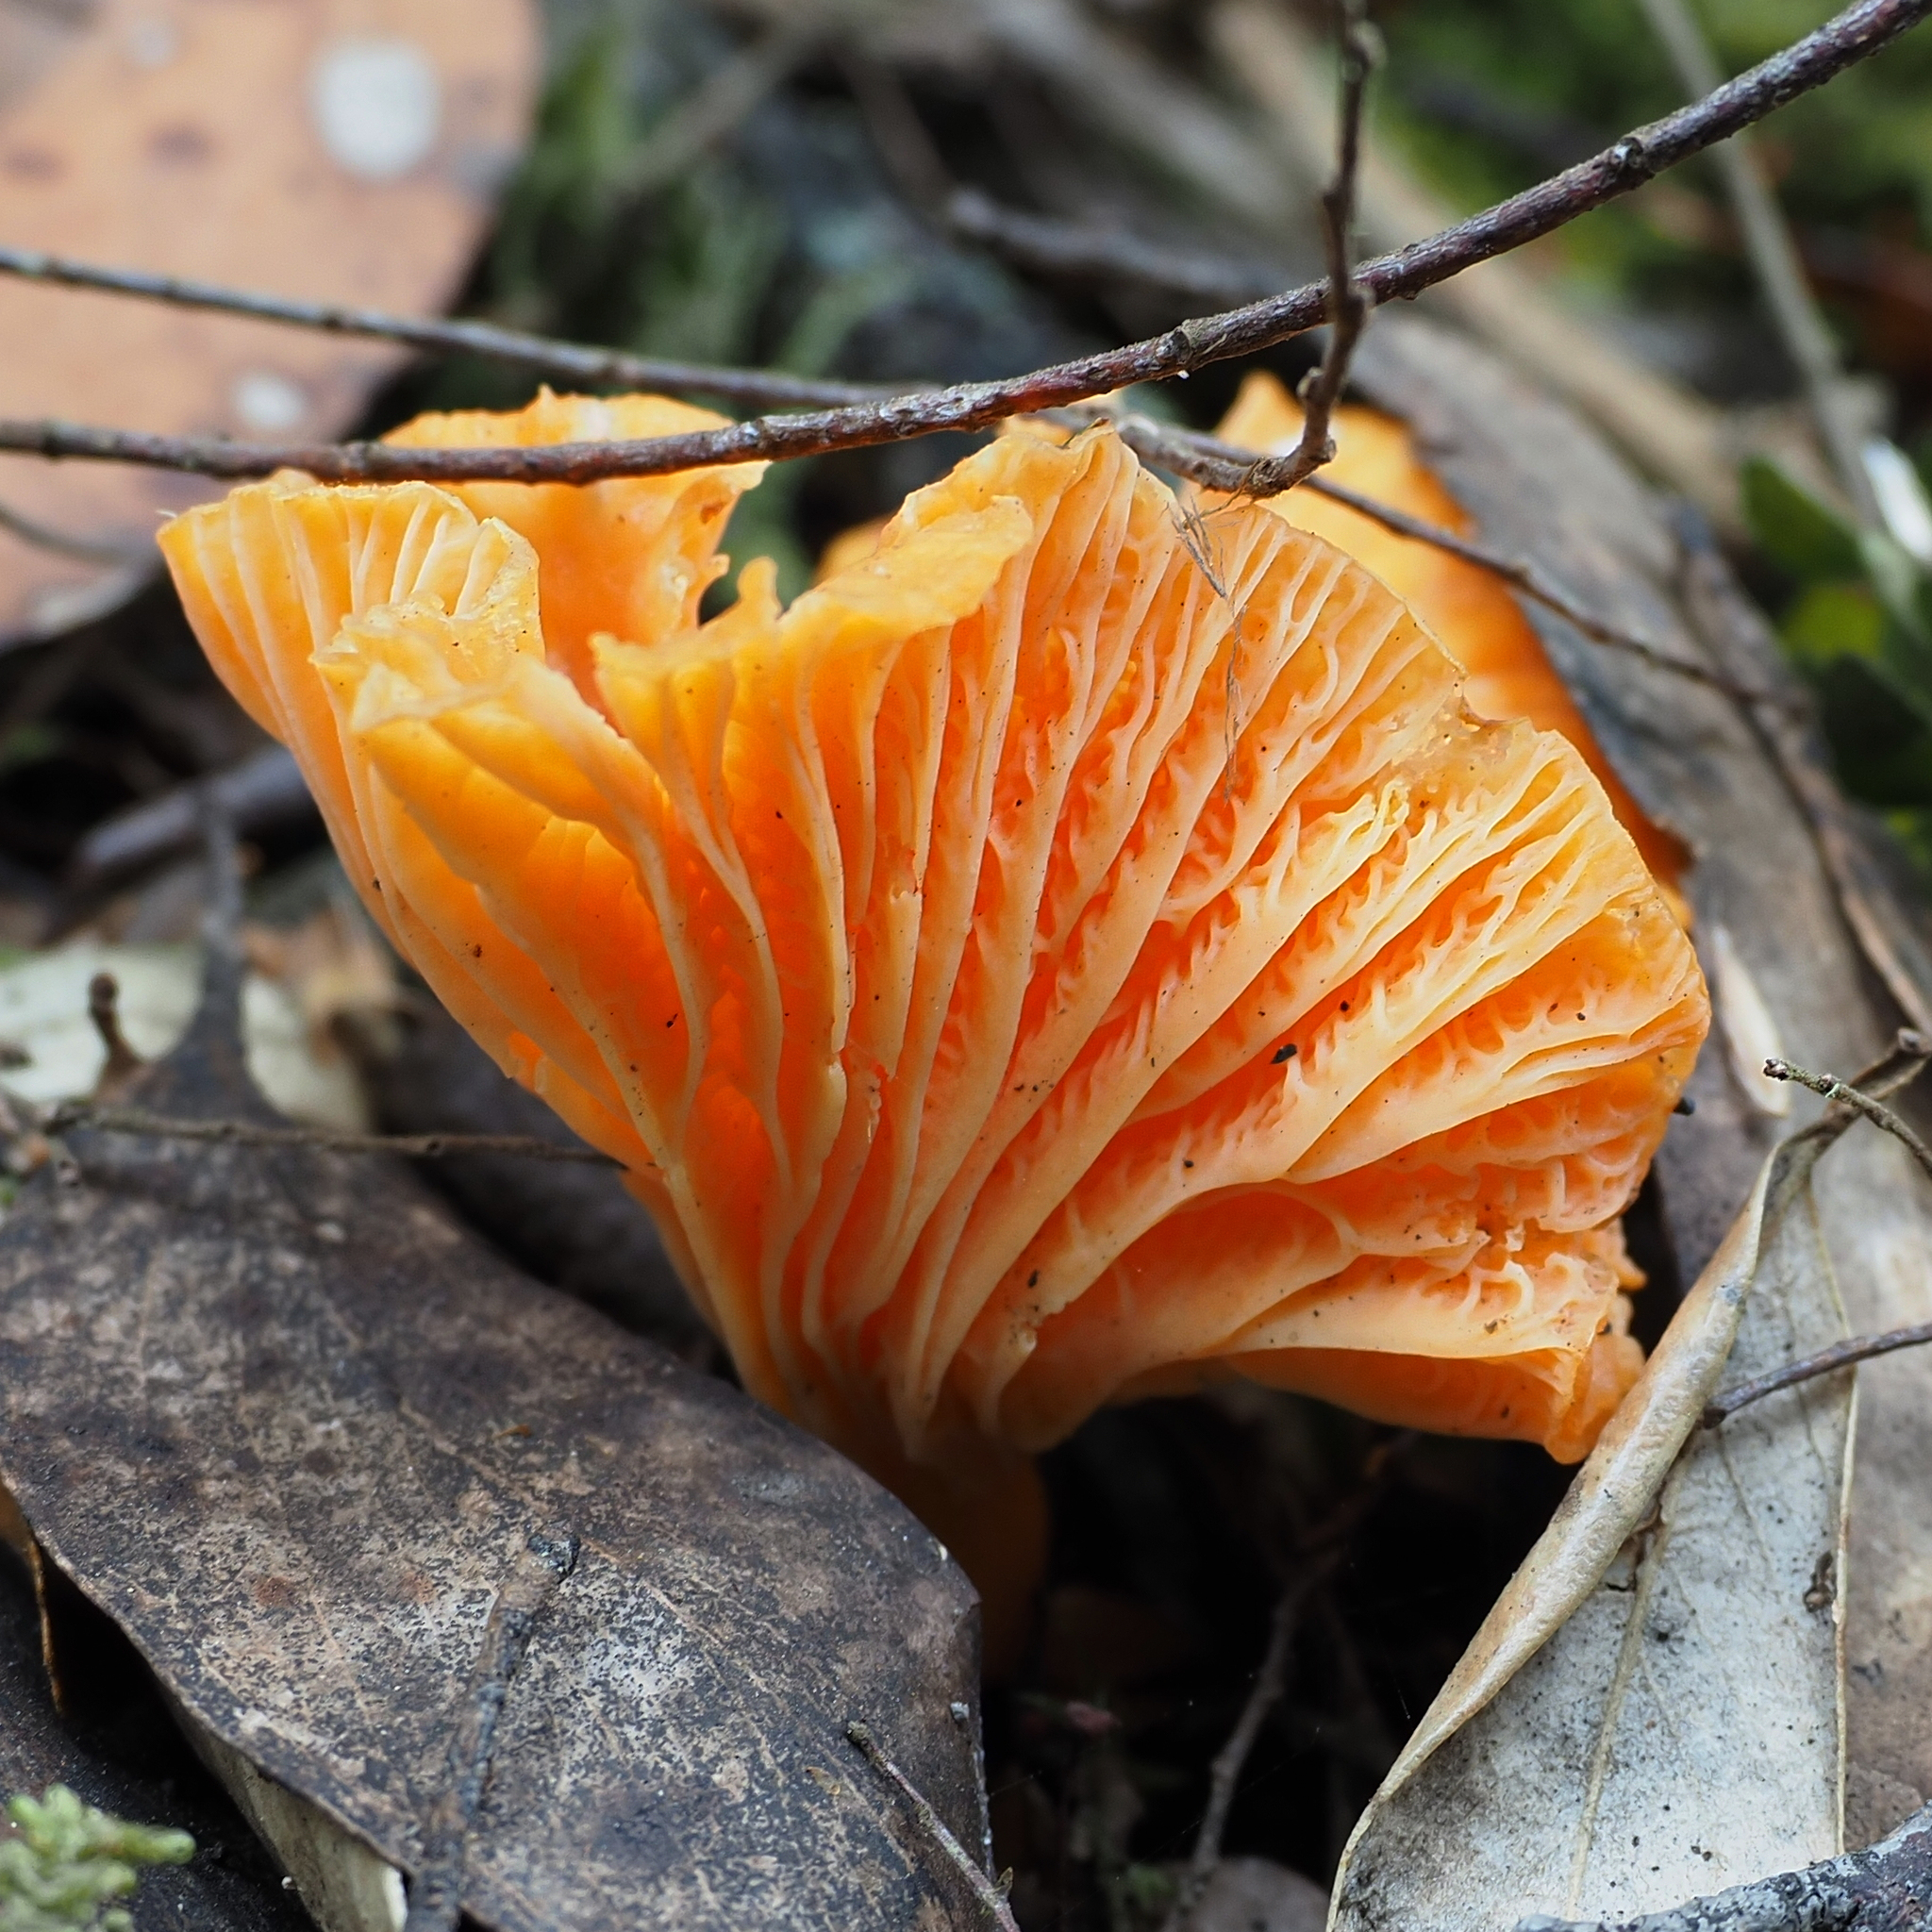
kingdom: Fungi
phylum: Basidiomycota
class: Agaricomycetes
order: Cantharellales
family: Hydnaceae
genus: Cantharellus
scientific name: Cantharellus
